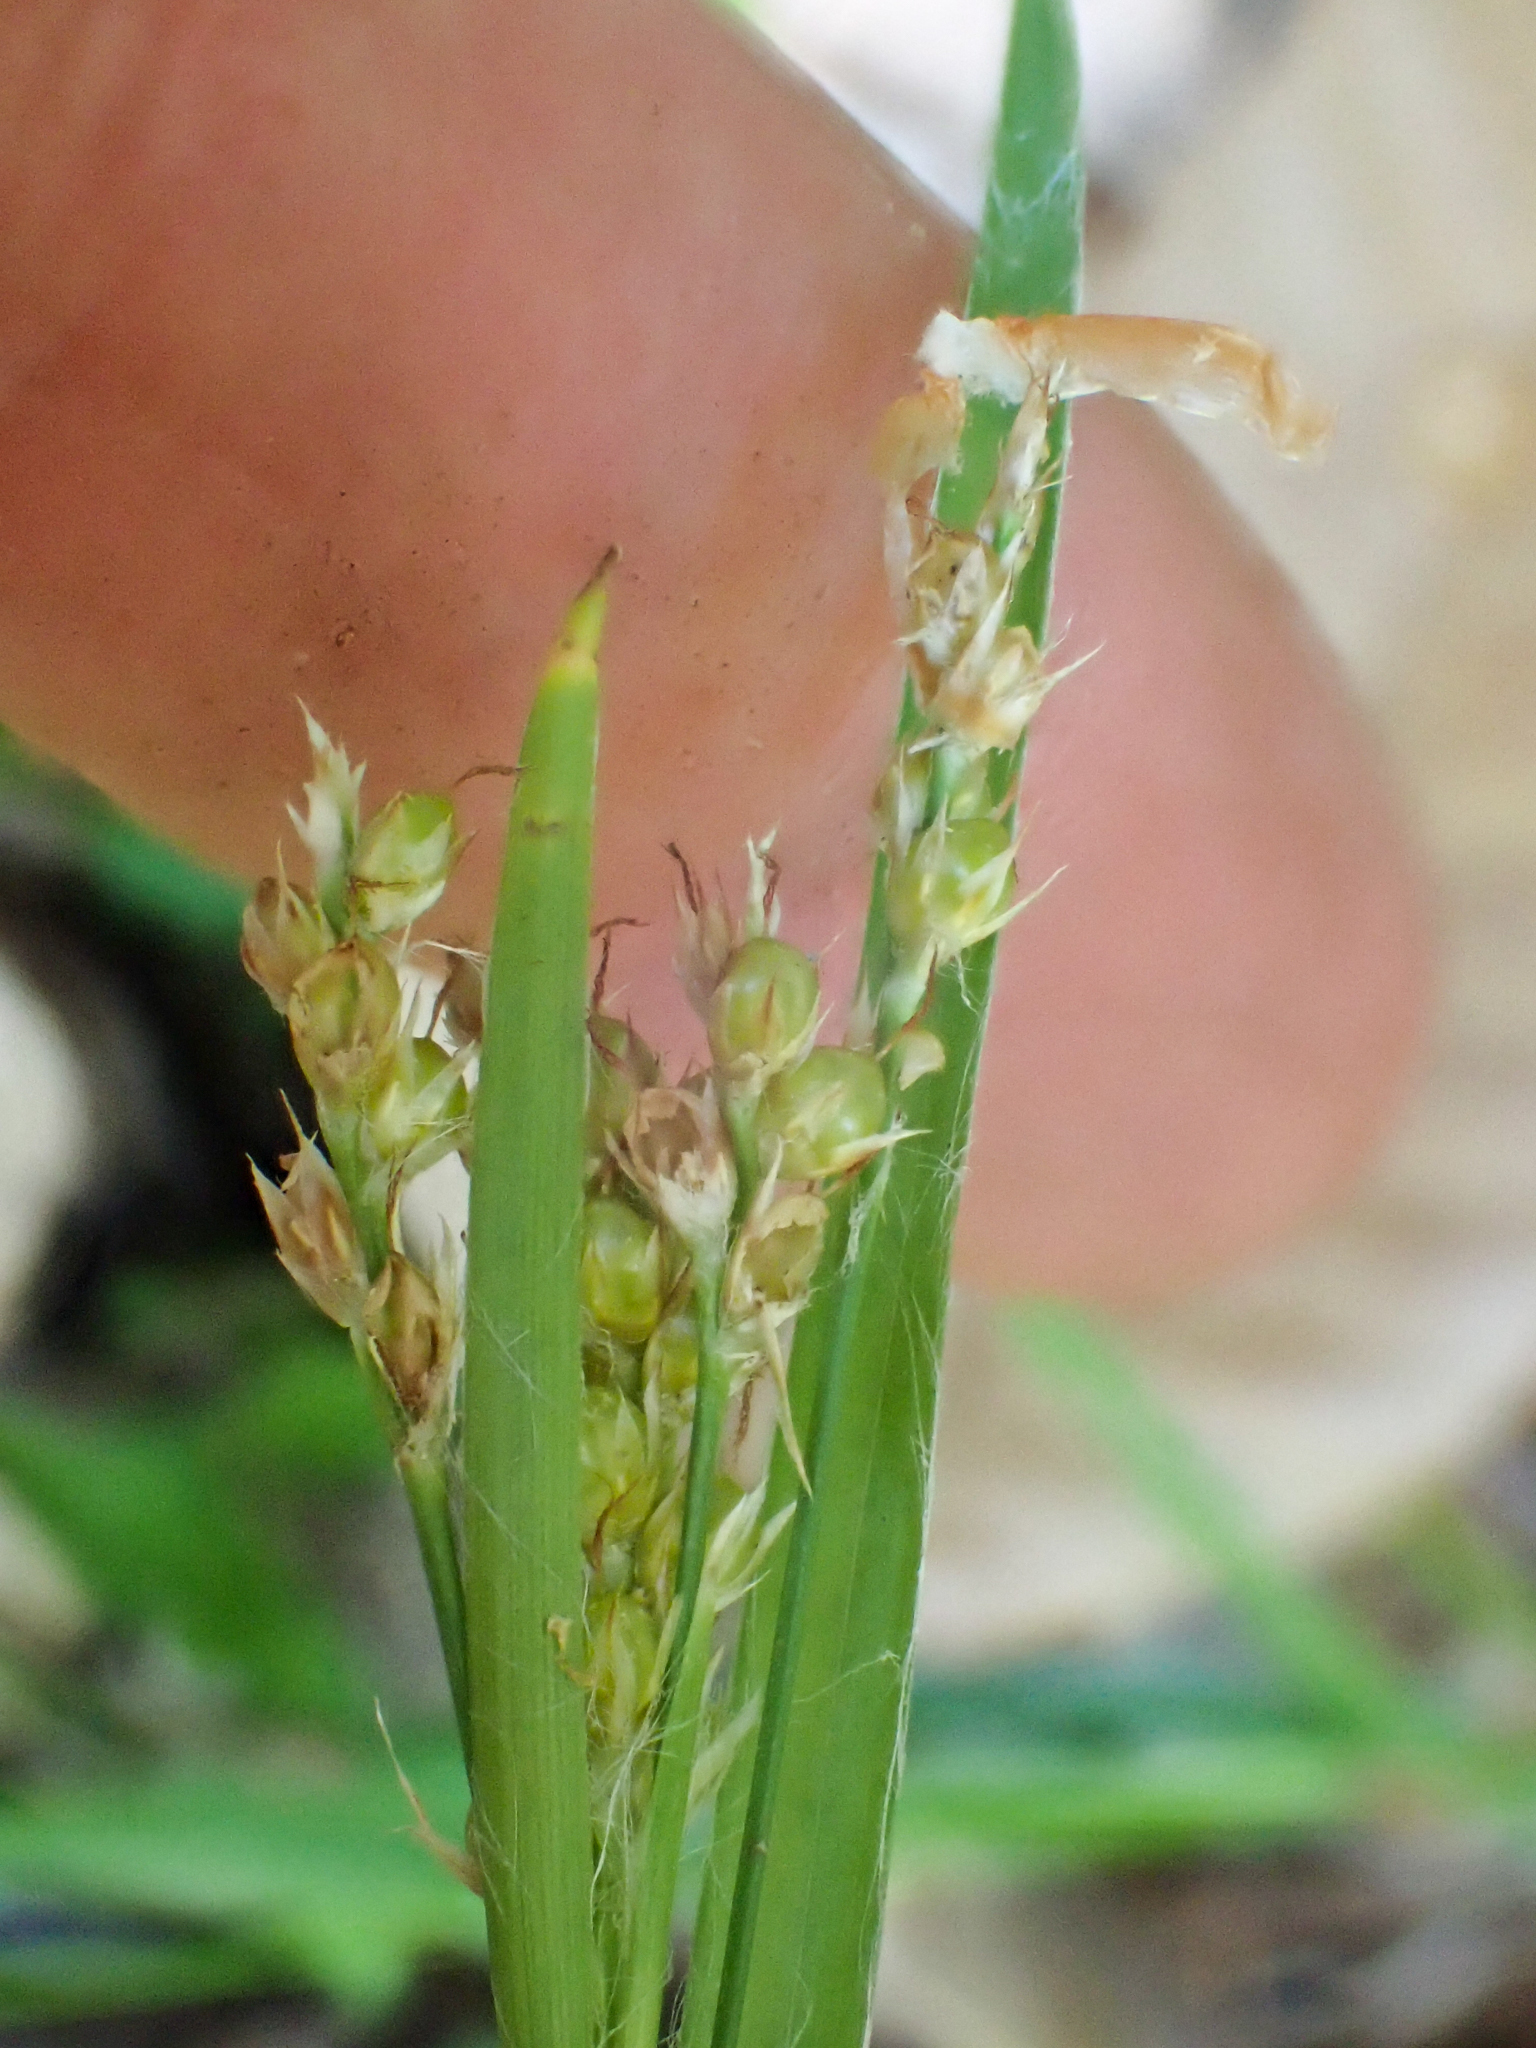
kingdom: Plantae
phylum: Tracheophyta
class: Liliopsida
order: Poales
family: Juncaceae
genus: Luzula
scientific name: Luzula comosa
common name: Pacific woodrush
